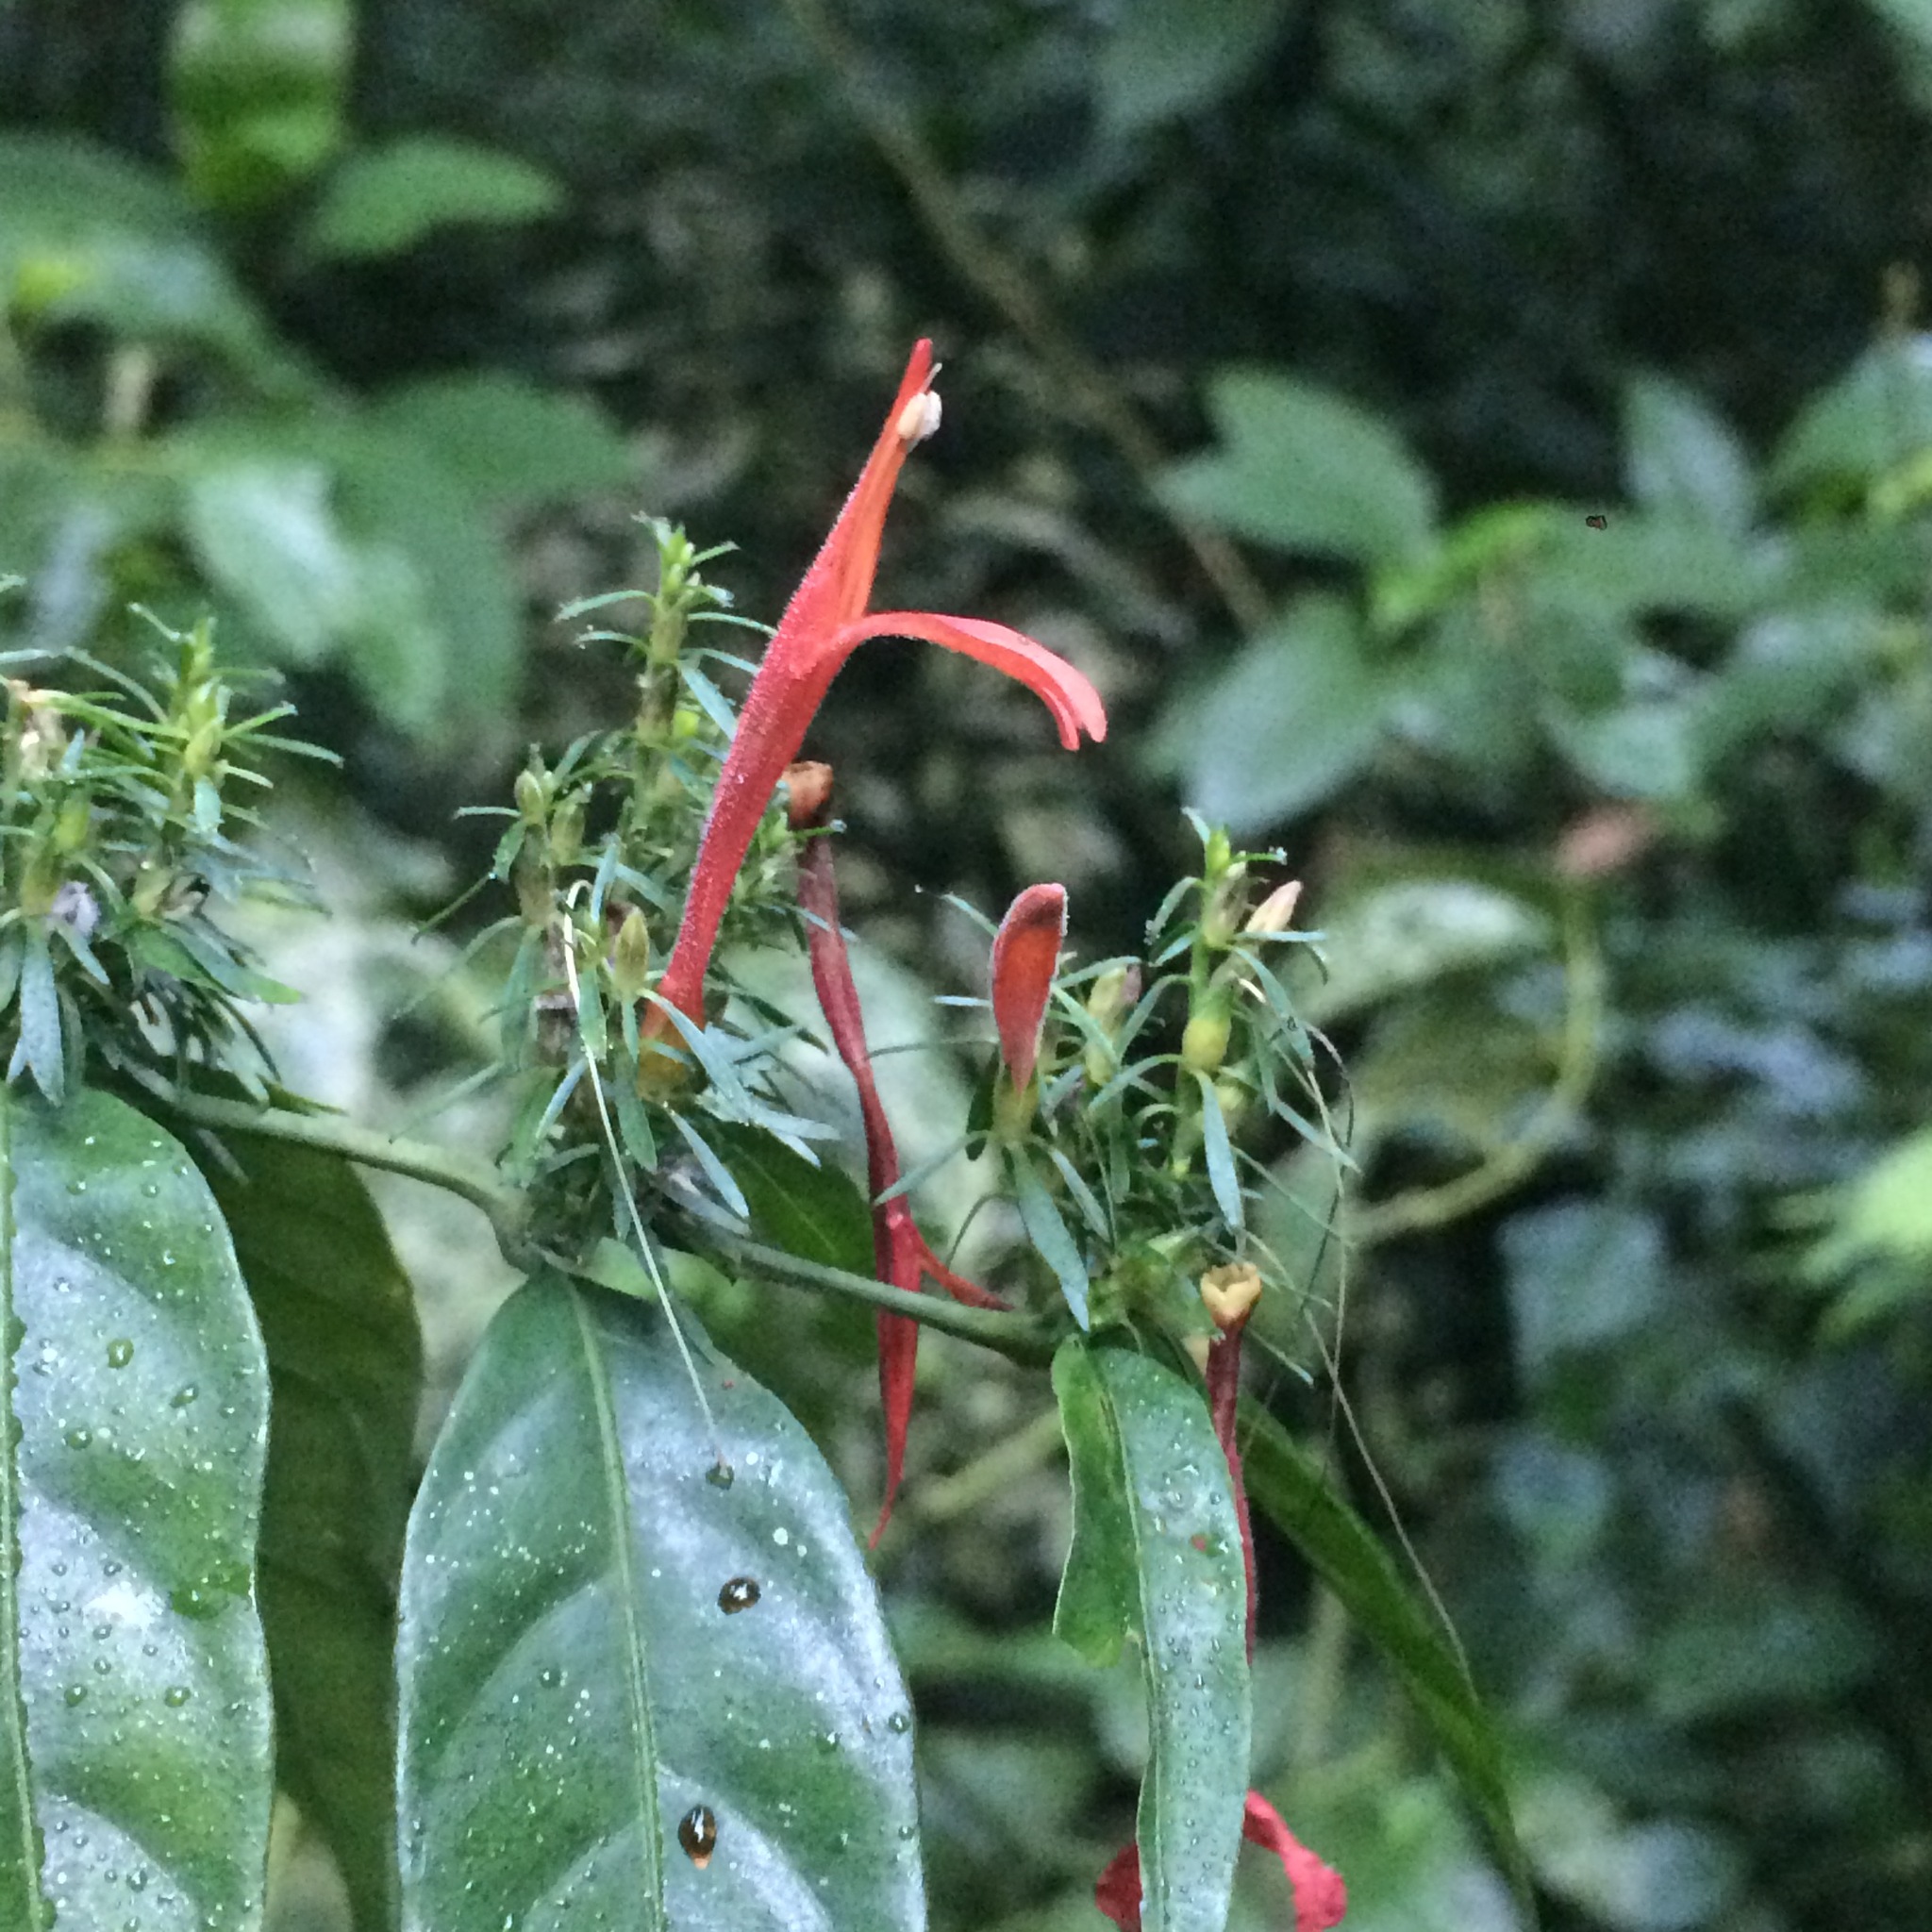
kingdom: Plantae
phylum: Tracheophyta
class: Magnoliopsida
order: Lamiales
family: Acanthaceae
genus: Justicia
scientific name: Justicia brasiliana
